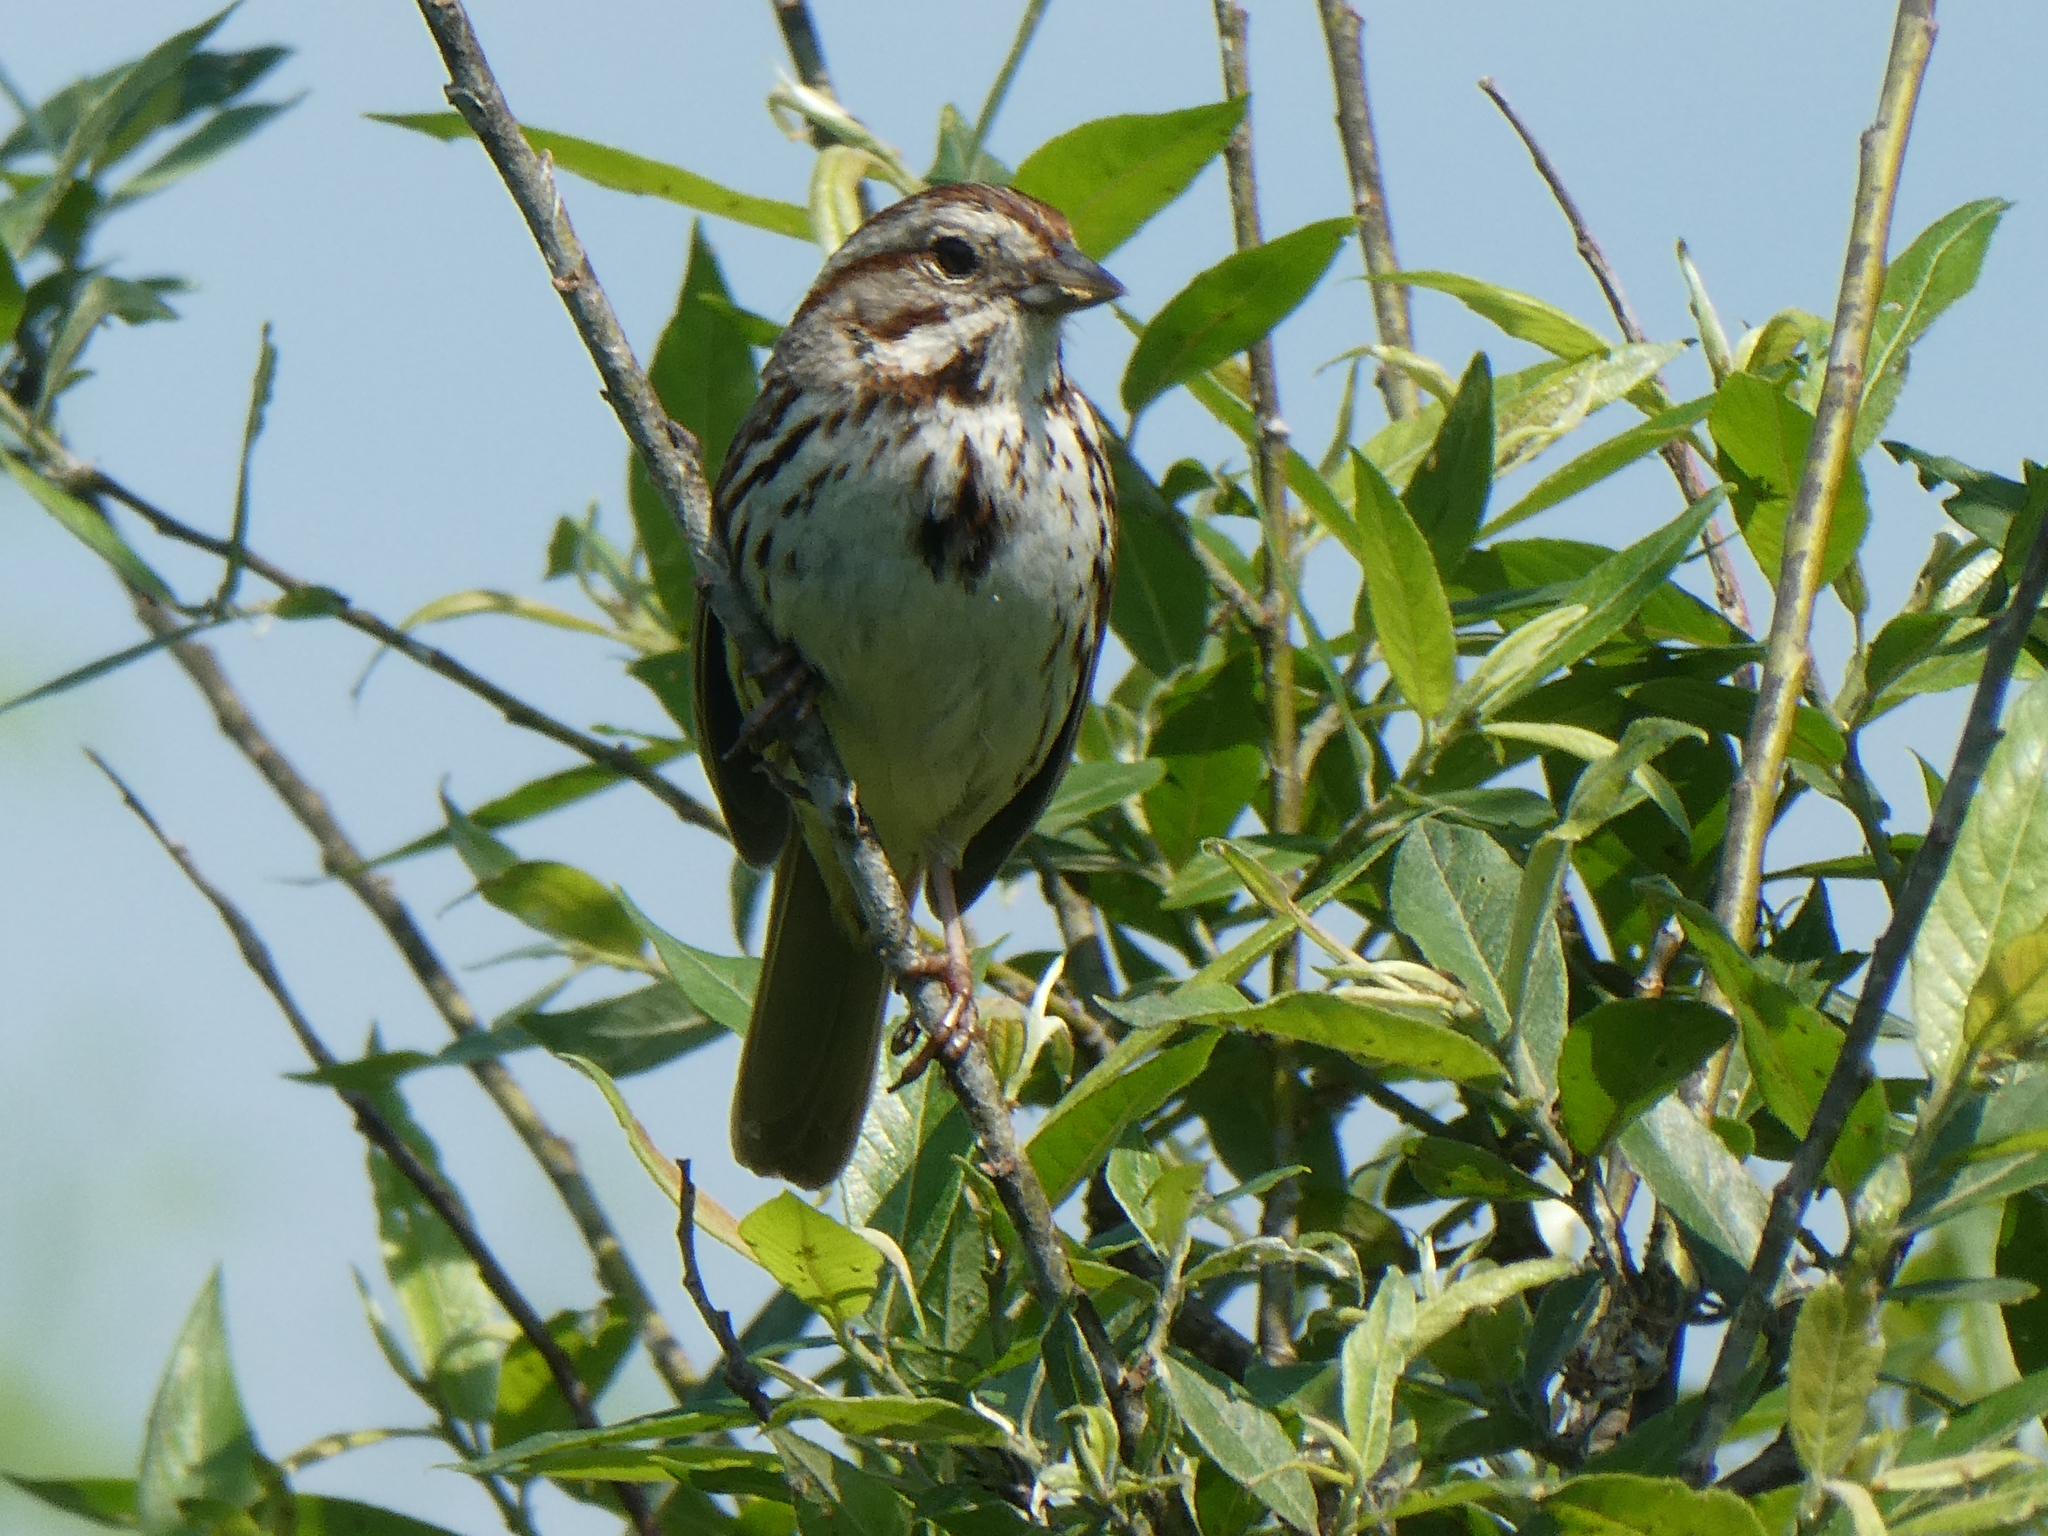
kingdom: Animalia
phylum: Chordata
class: Aves
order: Passeriformes
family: Passerellidae
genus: Melospiza
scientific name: Melospiza melodia
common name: Song sparrow
